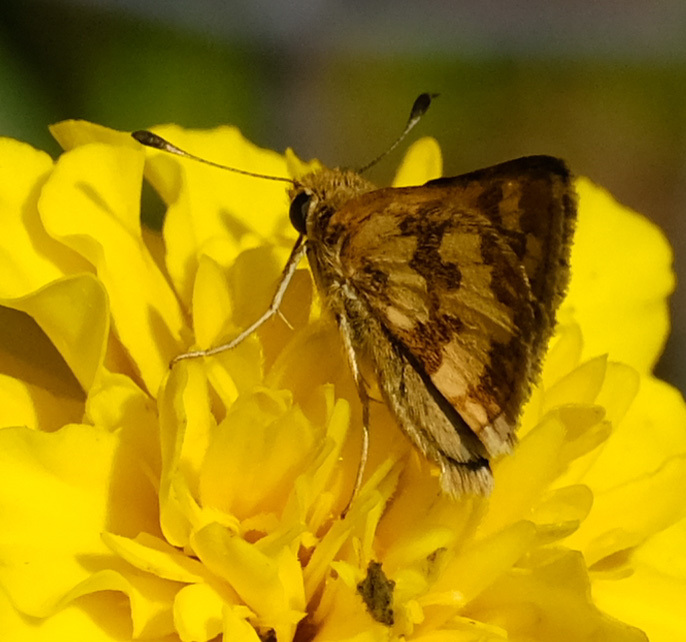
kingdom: Animalia
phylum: Arthropoda
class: Insecta
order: Lepidoptera
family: Hesperiidae
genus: Polites
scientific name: Polites coras
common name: Peck's skipper
